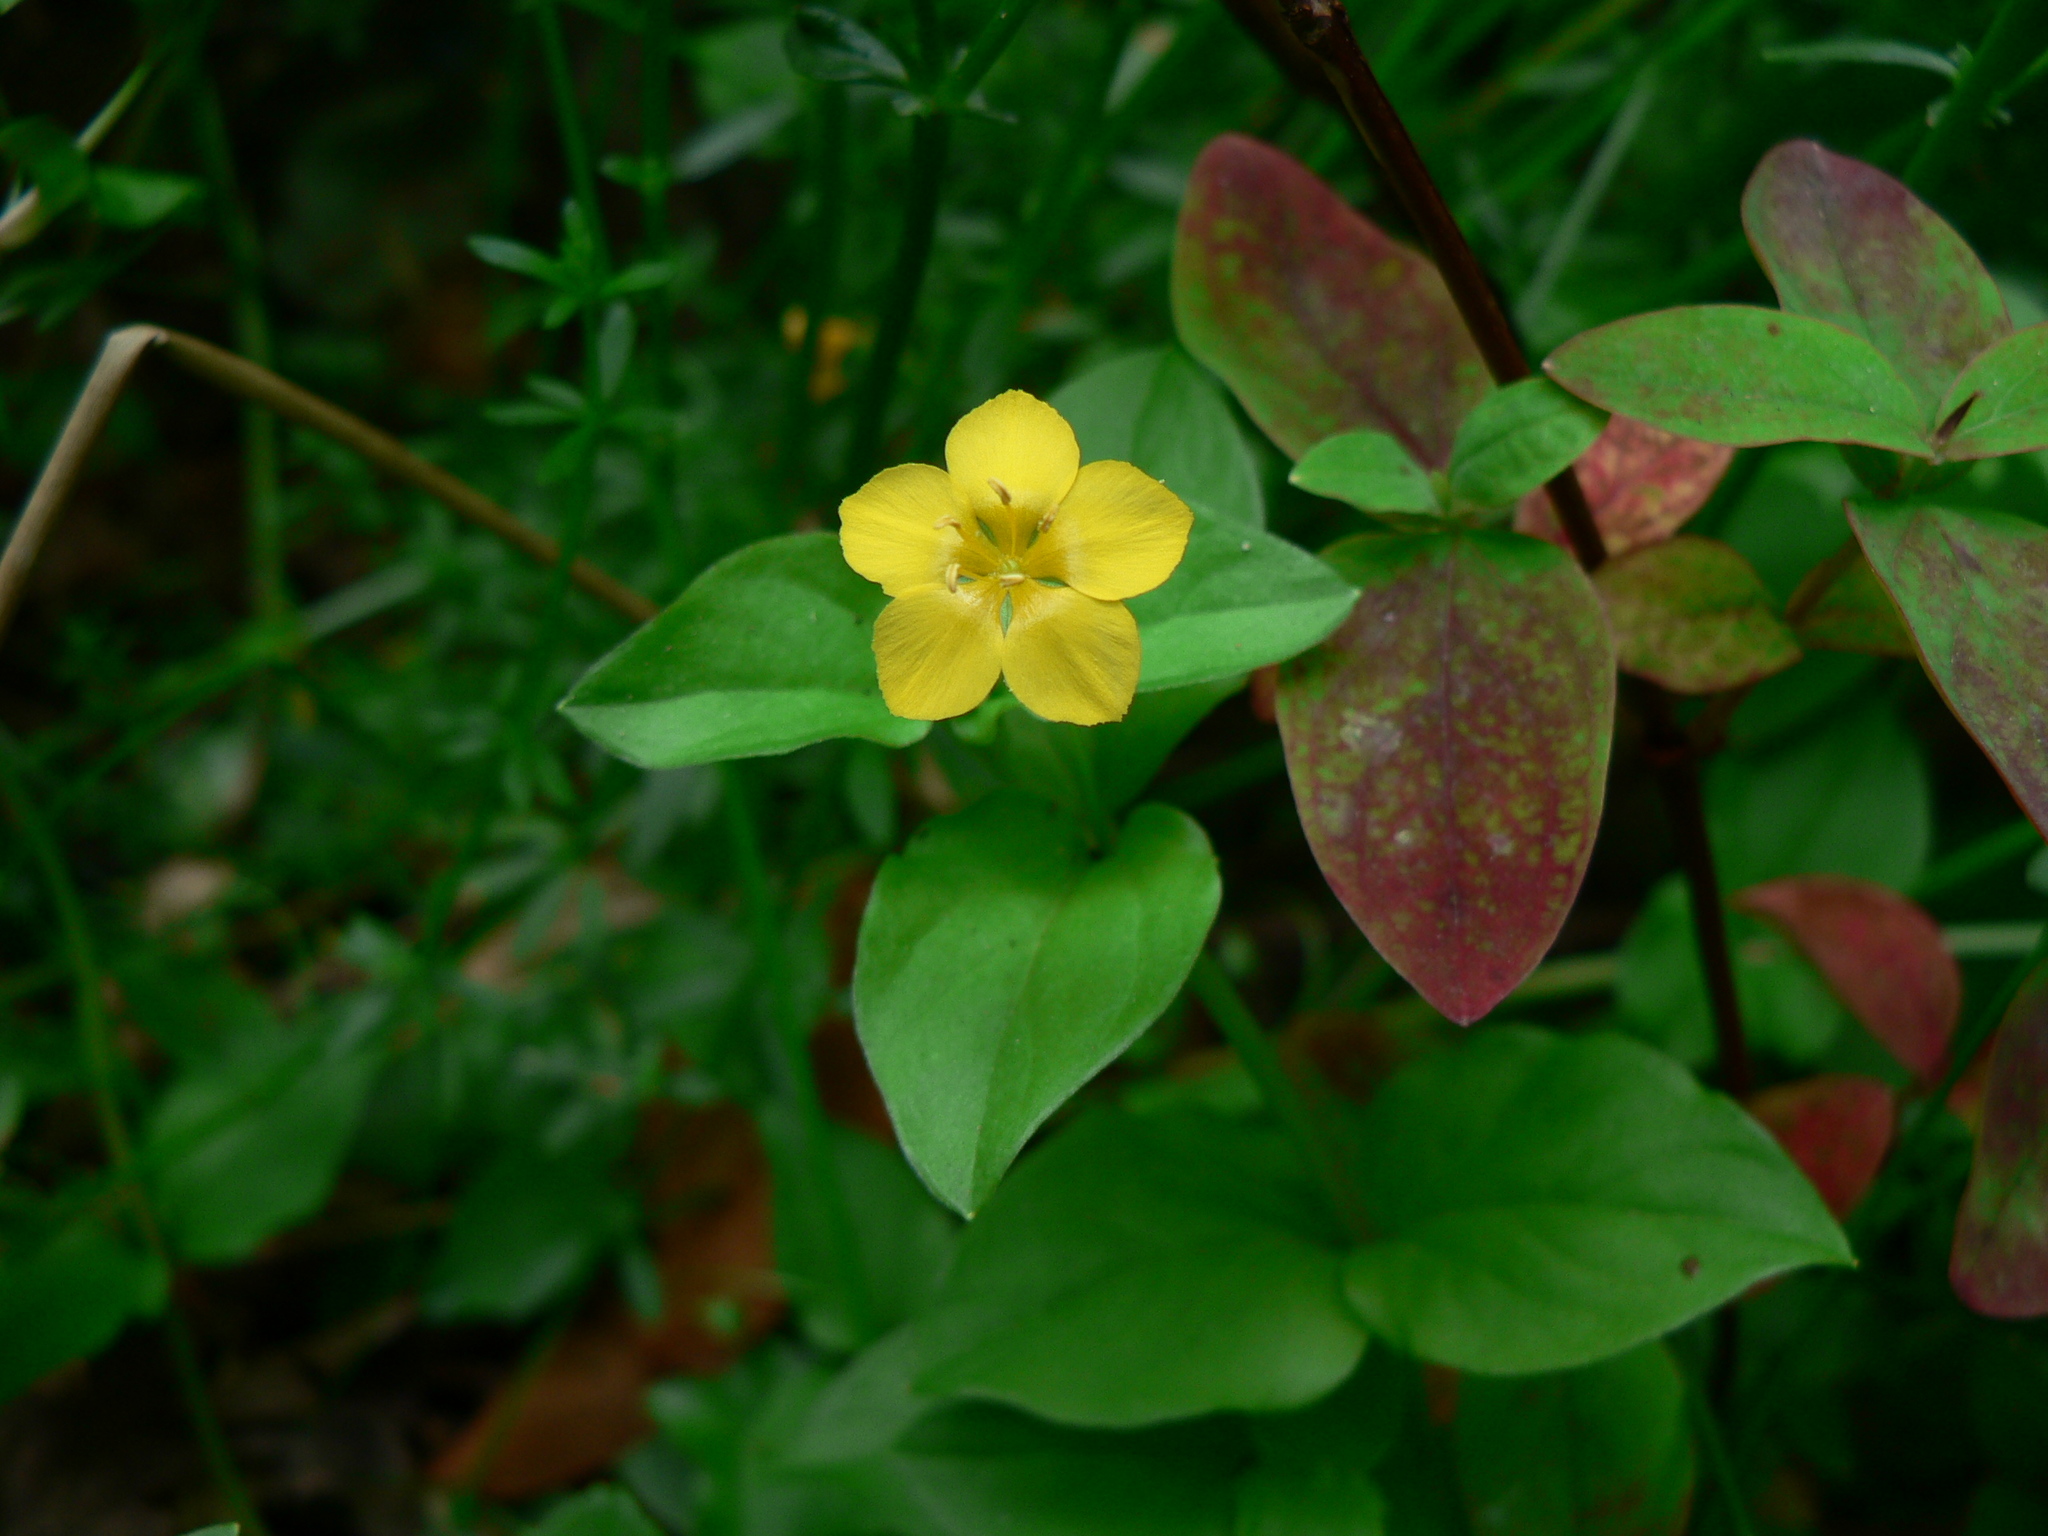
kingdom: Plantae
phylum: Tracheophyta
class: Magnoliopsida
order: Ericales
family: Primulaceae
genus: Lysimachia
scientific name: Lysimachia nemorum
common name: Yellow pimpernel
